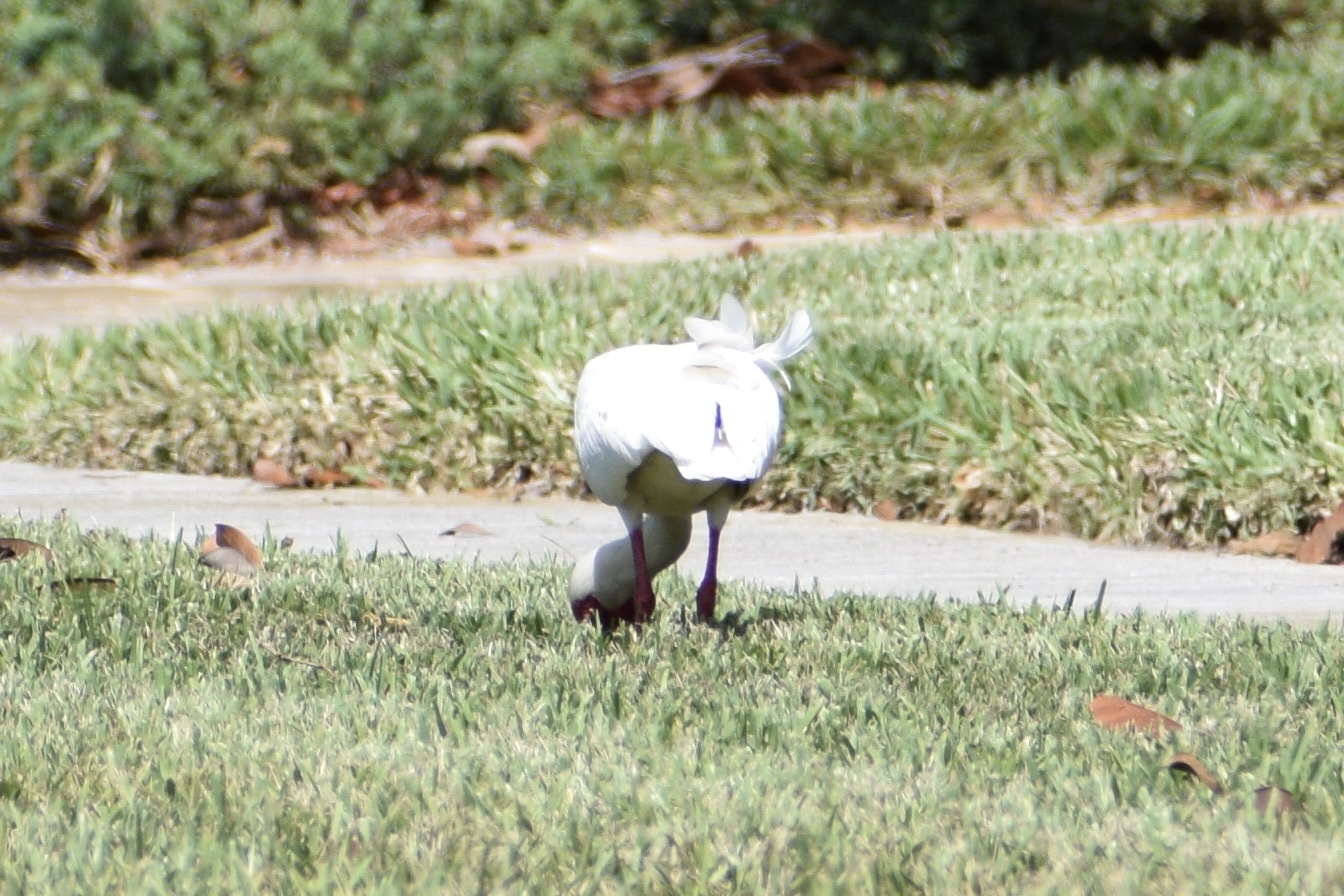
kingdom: Animalia
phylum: Chordata
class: Aves
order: Pelecaniformes
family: Threskiornithidae
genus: Eudocimus
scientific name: Eudocimus albus
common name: White ibis
